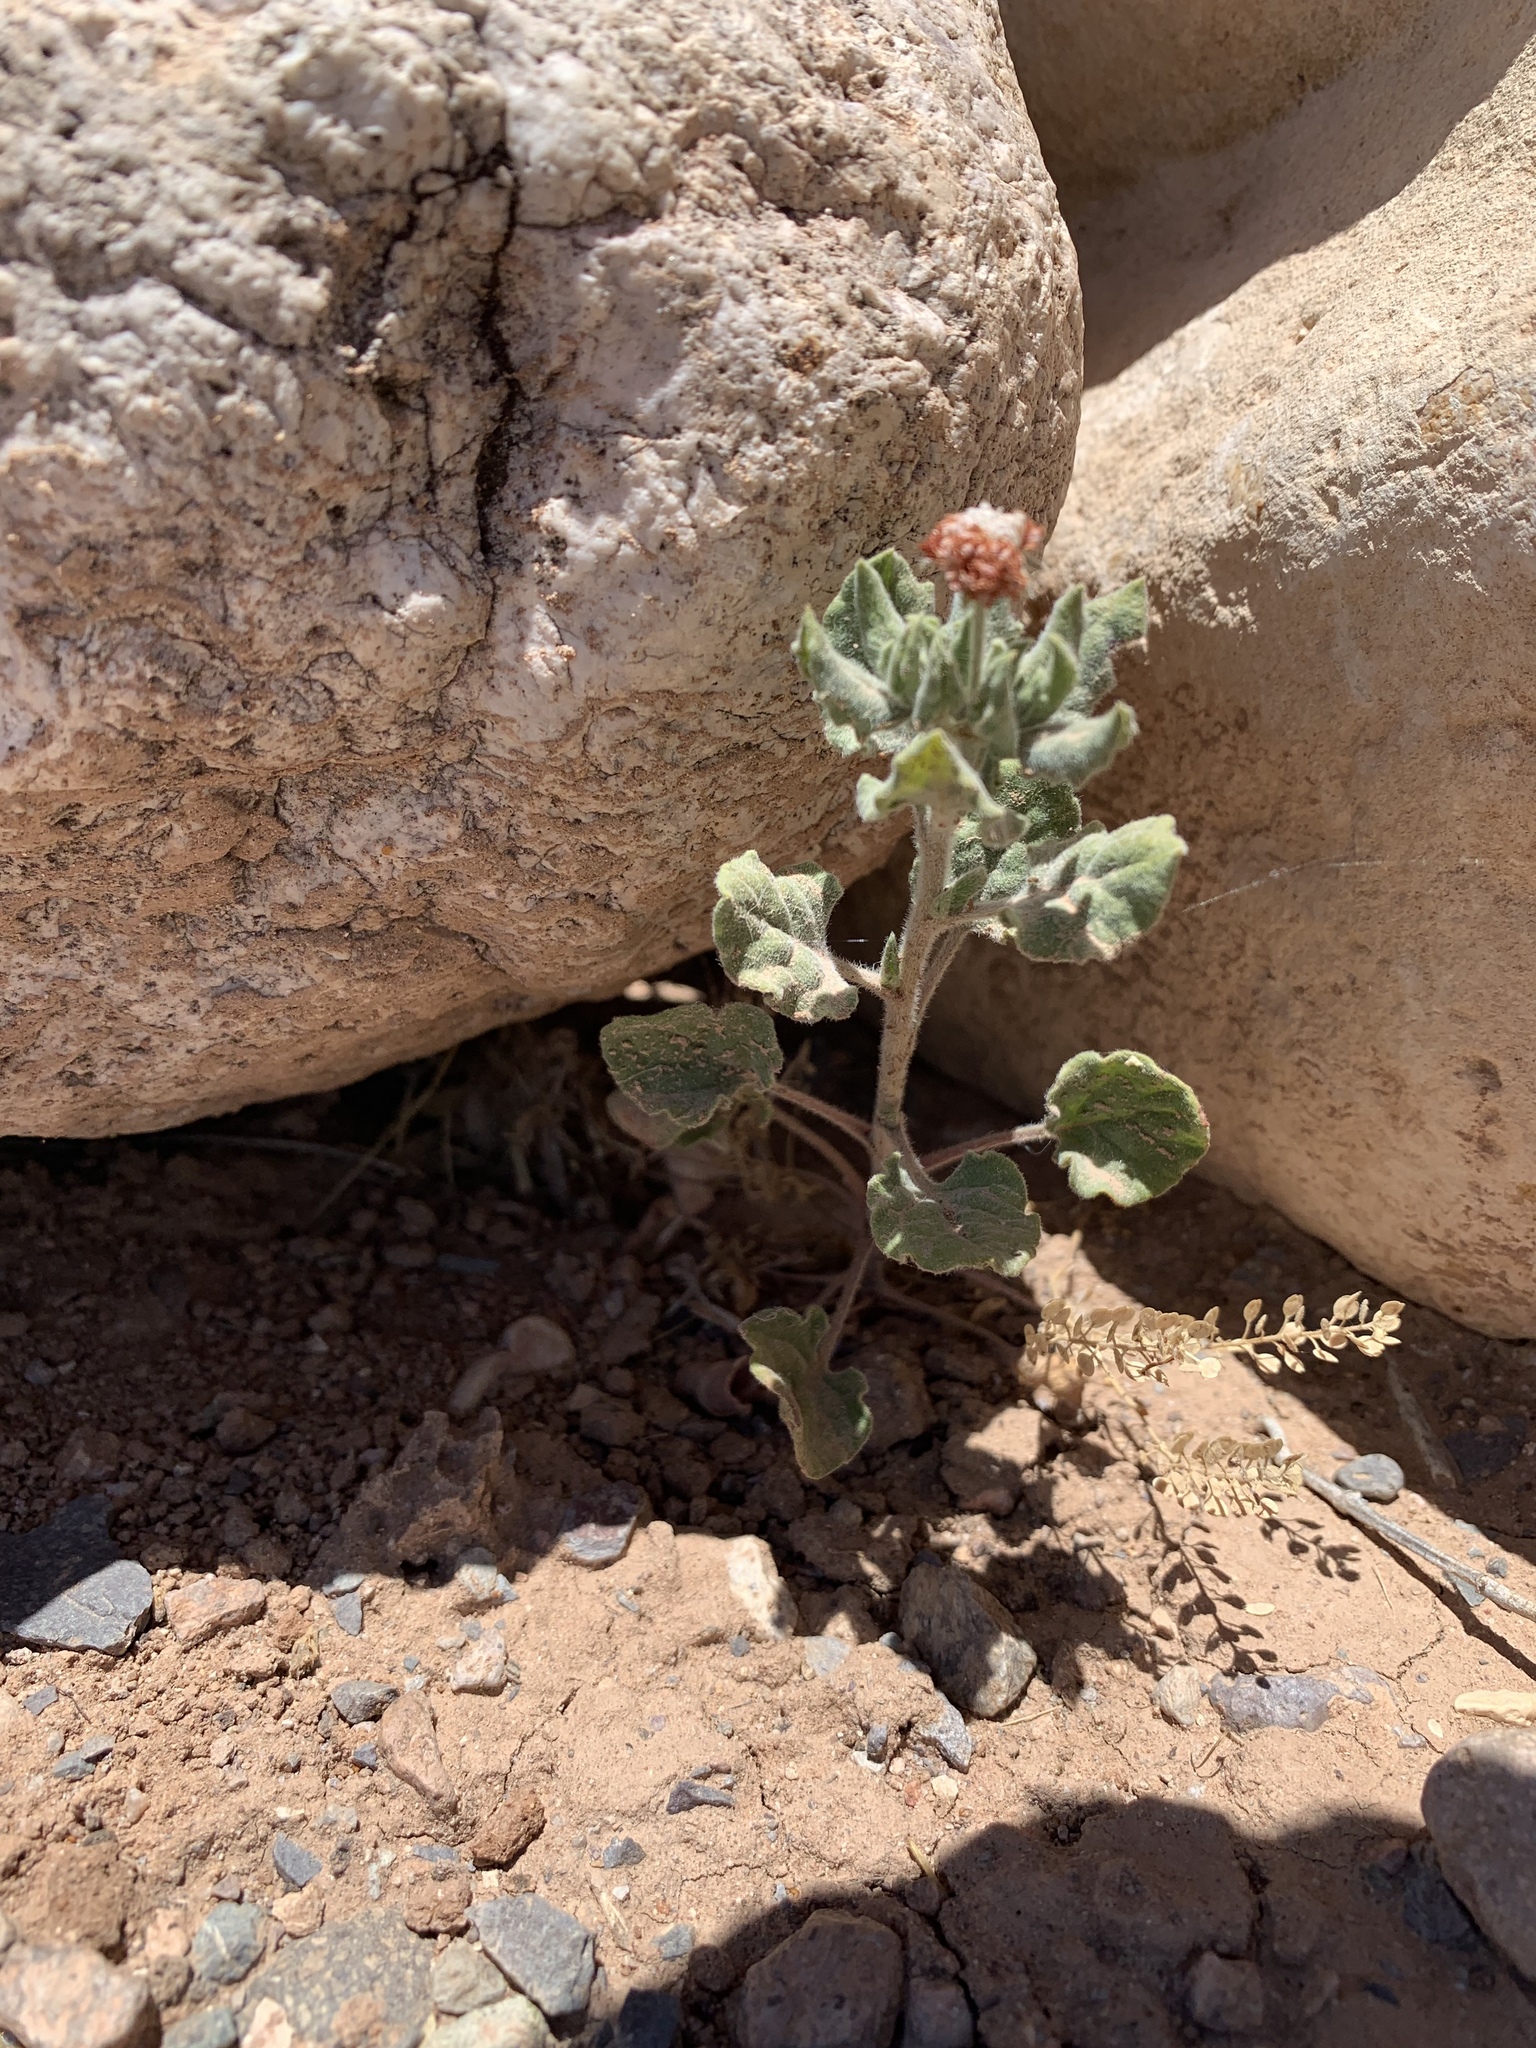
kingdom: Plantae
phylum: Tracheophyta
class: Magnoliopsida
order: Caryophyllales
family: Polygonaceae
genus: Eriogonum
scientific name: Eriogonum abertianum
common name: Abert's wild buckwheat
